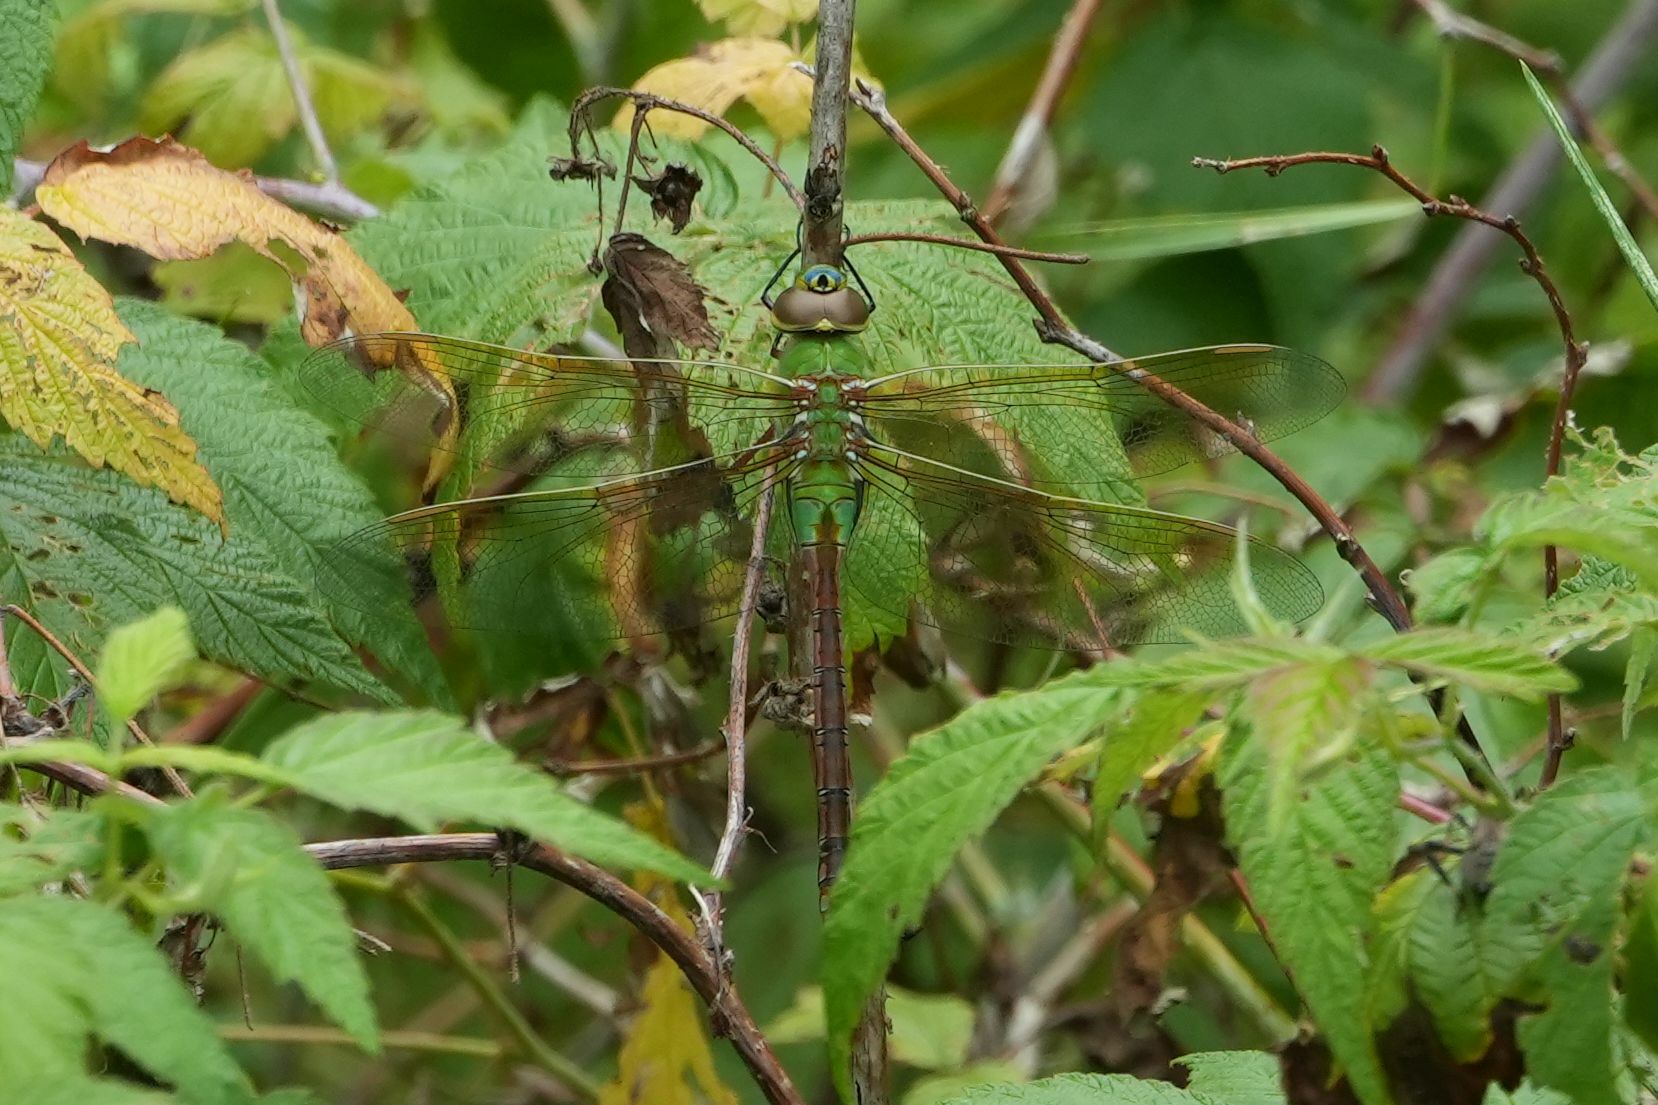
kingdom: Animalia
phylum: Arthropoda
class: Insecta
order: Odonata
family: Aeshnidae
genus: Anax
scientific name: Anax junius
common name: Common green darner
